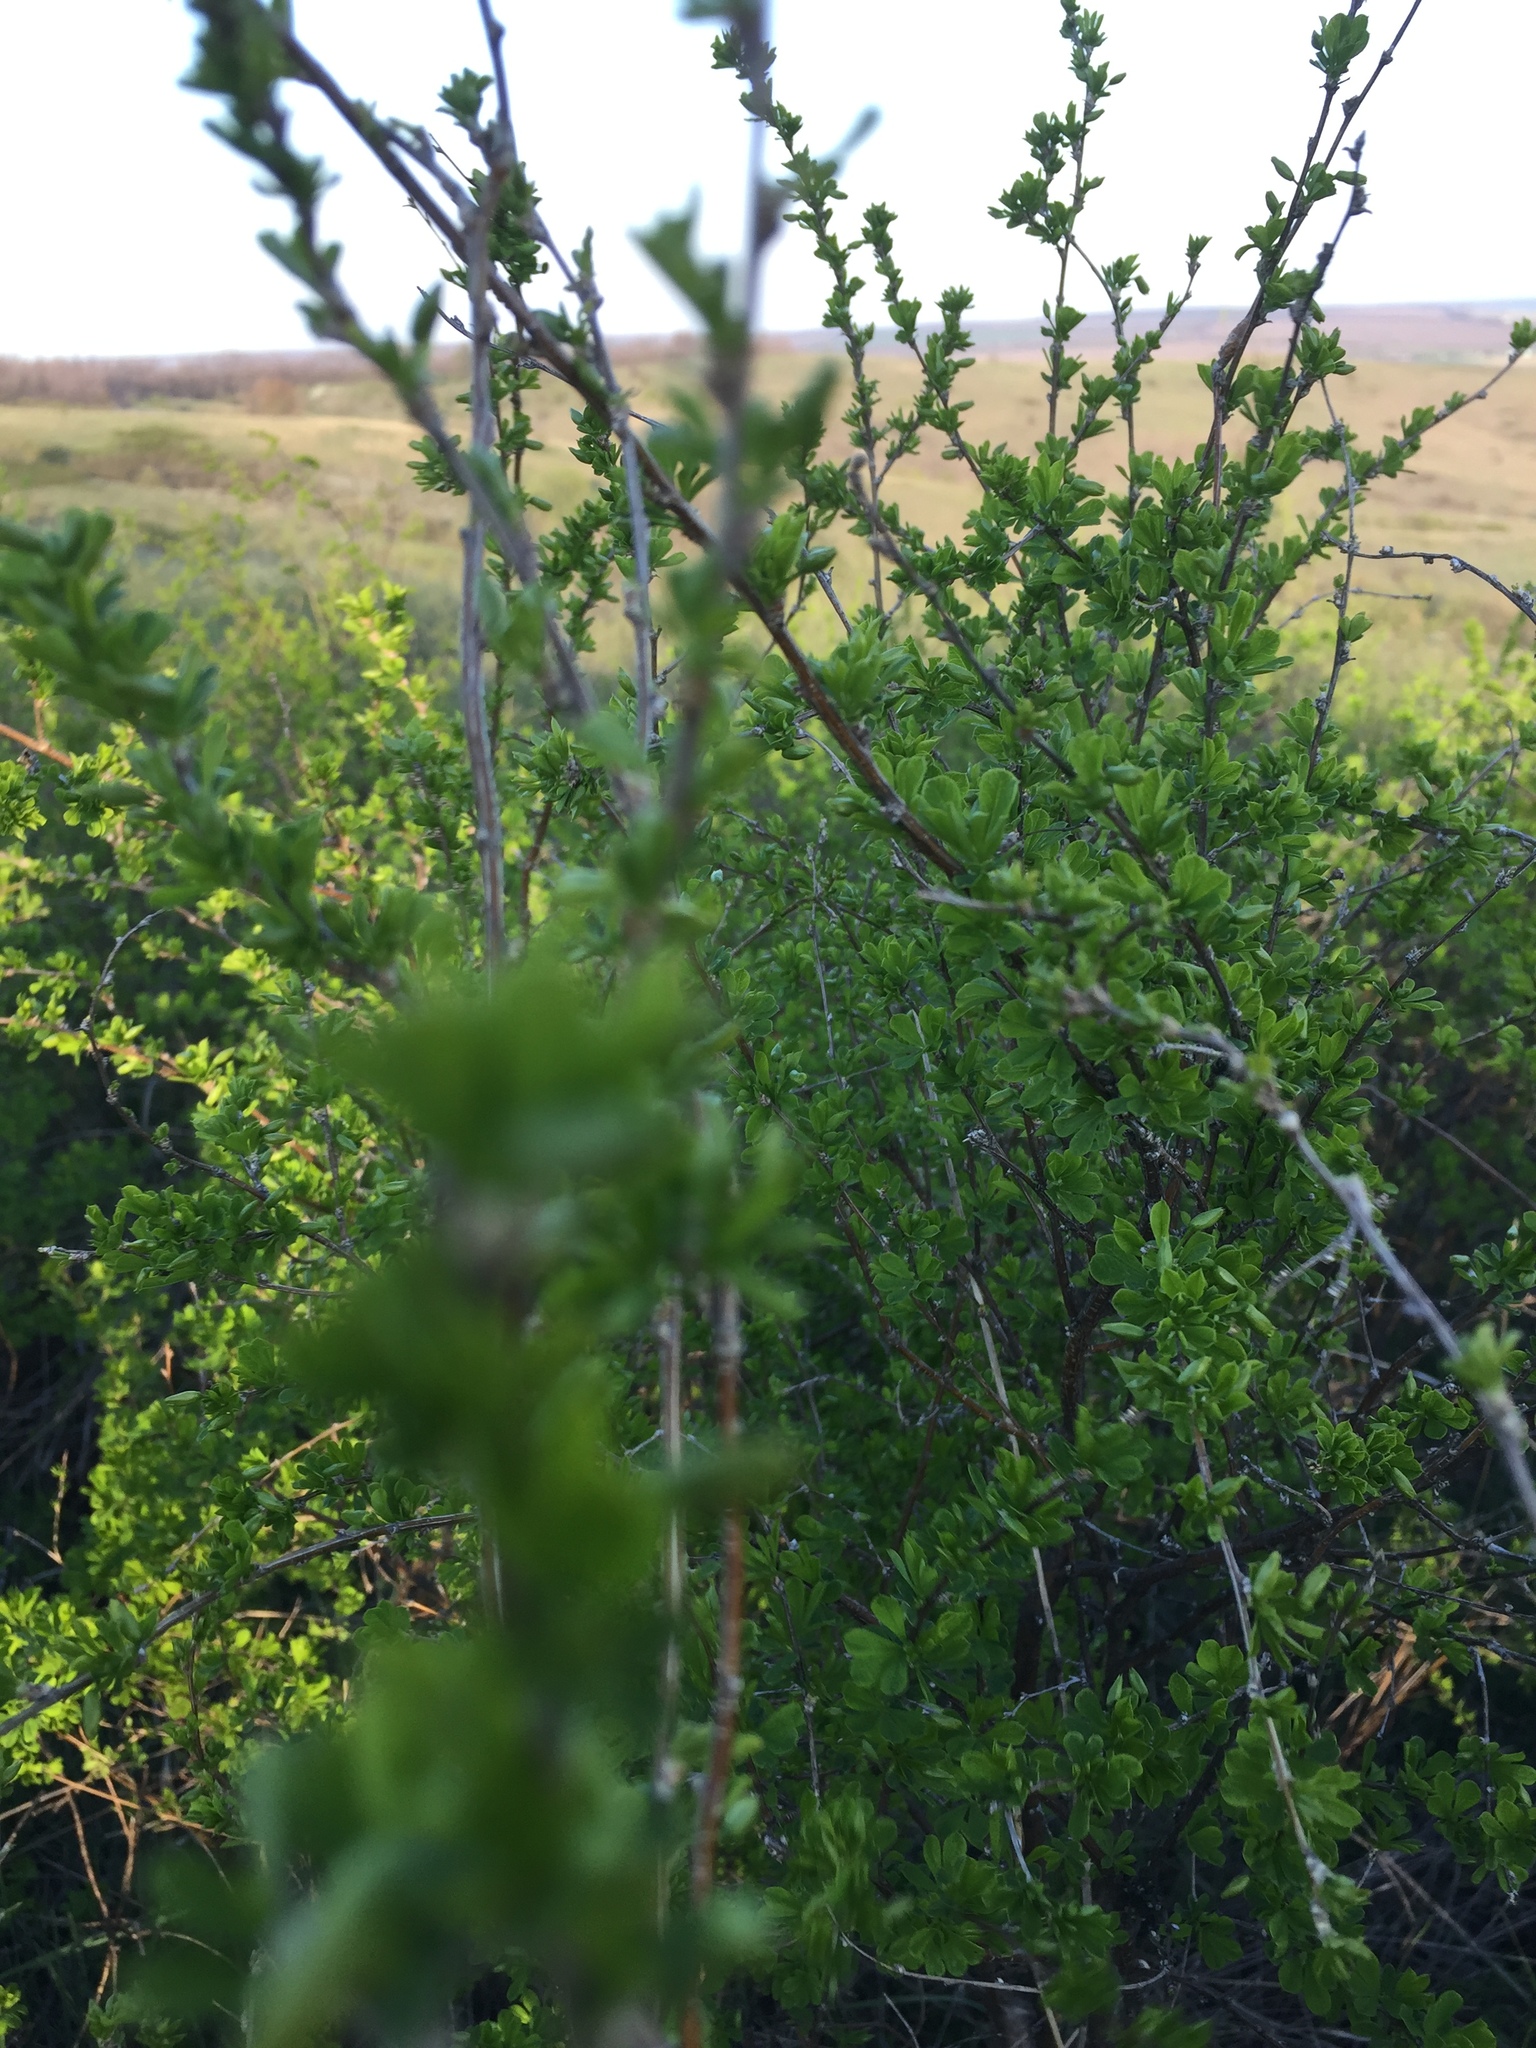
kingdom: Plantae
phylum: Tracheophyta
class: Magnoliopsida
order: Fabales
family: Fabaceae
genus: Caragana
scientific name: Caragana frutex
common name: Russian peashrub
